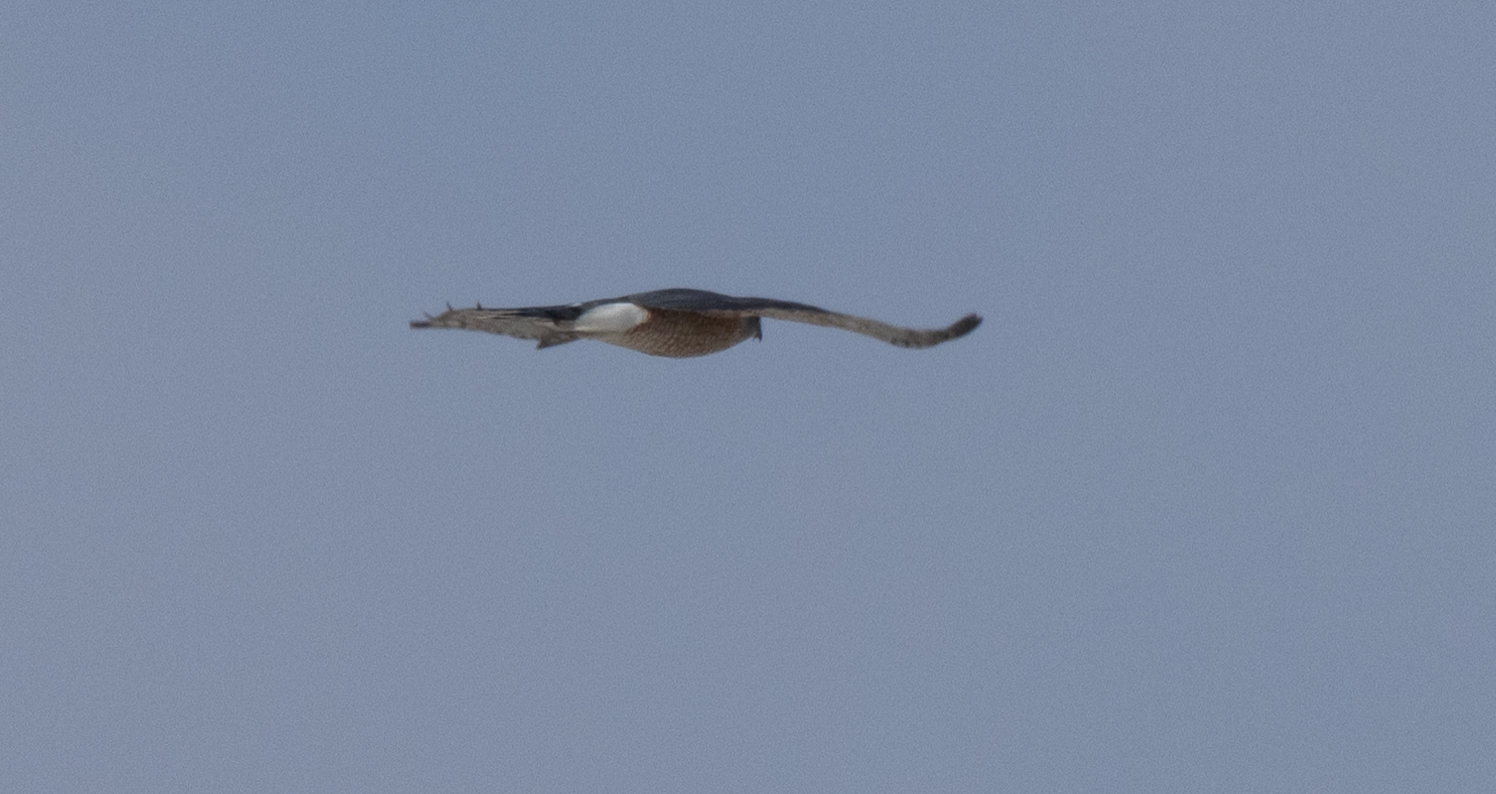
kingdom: Animalia
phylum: Chordata
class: Aves
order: Accipitriformes
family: Accipitridae
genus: Accipiter
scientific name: Accipiter cooperii
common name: Cooper's hawk
